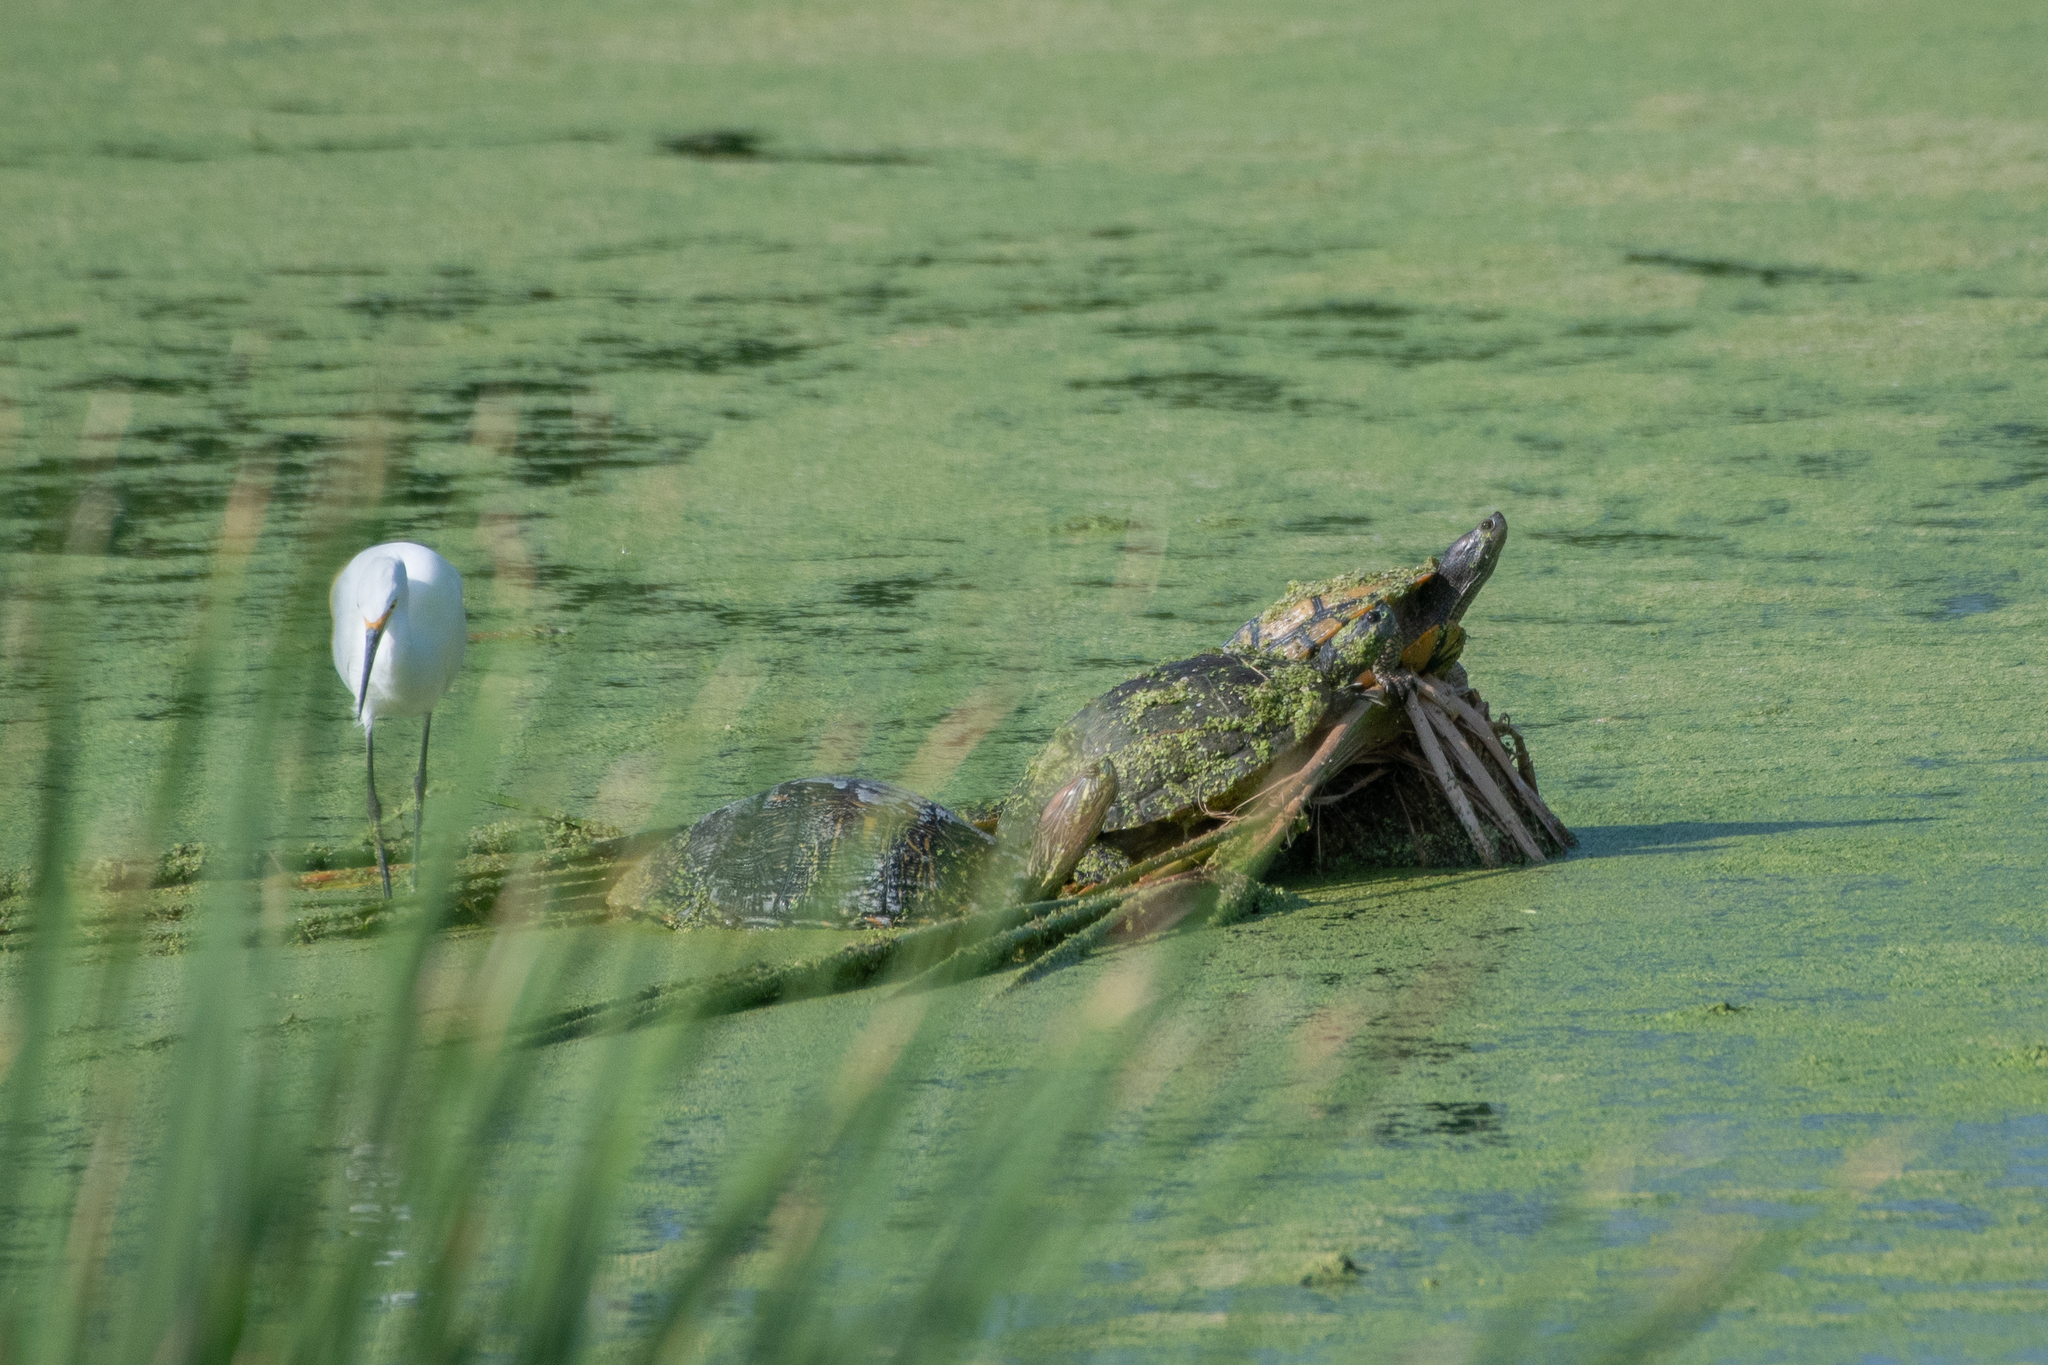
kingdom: Animalia
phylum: Chordata
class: Aves
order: Pelecaniformes
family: Ardeidae
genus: Egretta
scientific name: Egretta thula
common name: Snowy egret
